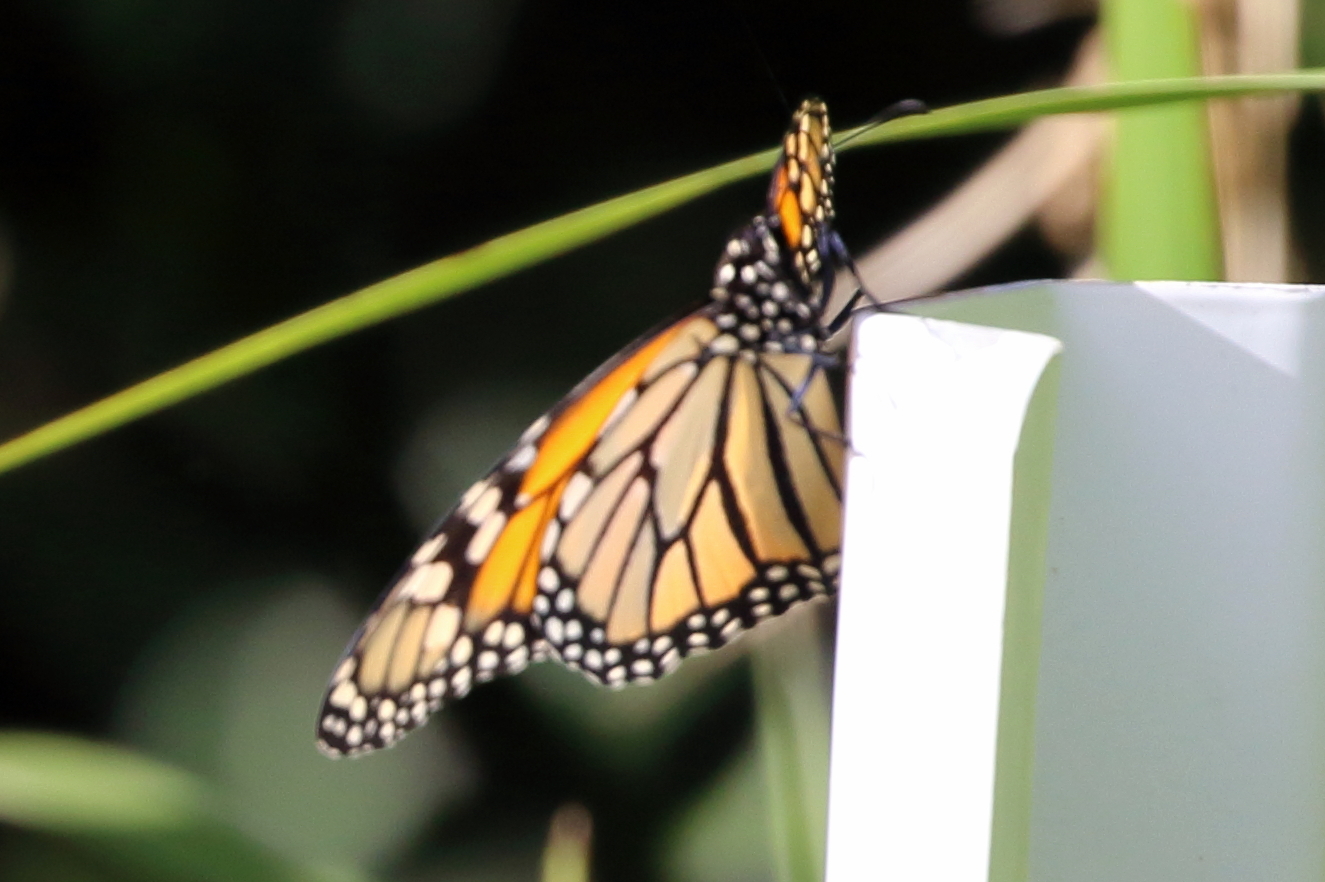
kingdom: Animalia
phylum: Arthropoda
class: Insecta
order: Lepidoptera
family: Nymphalidae
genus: Danaus
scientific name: Danaus plexippus
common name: Monarch
